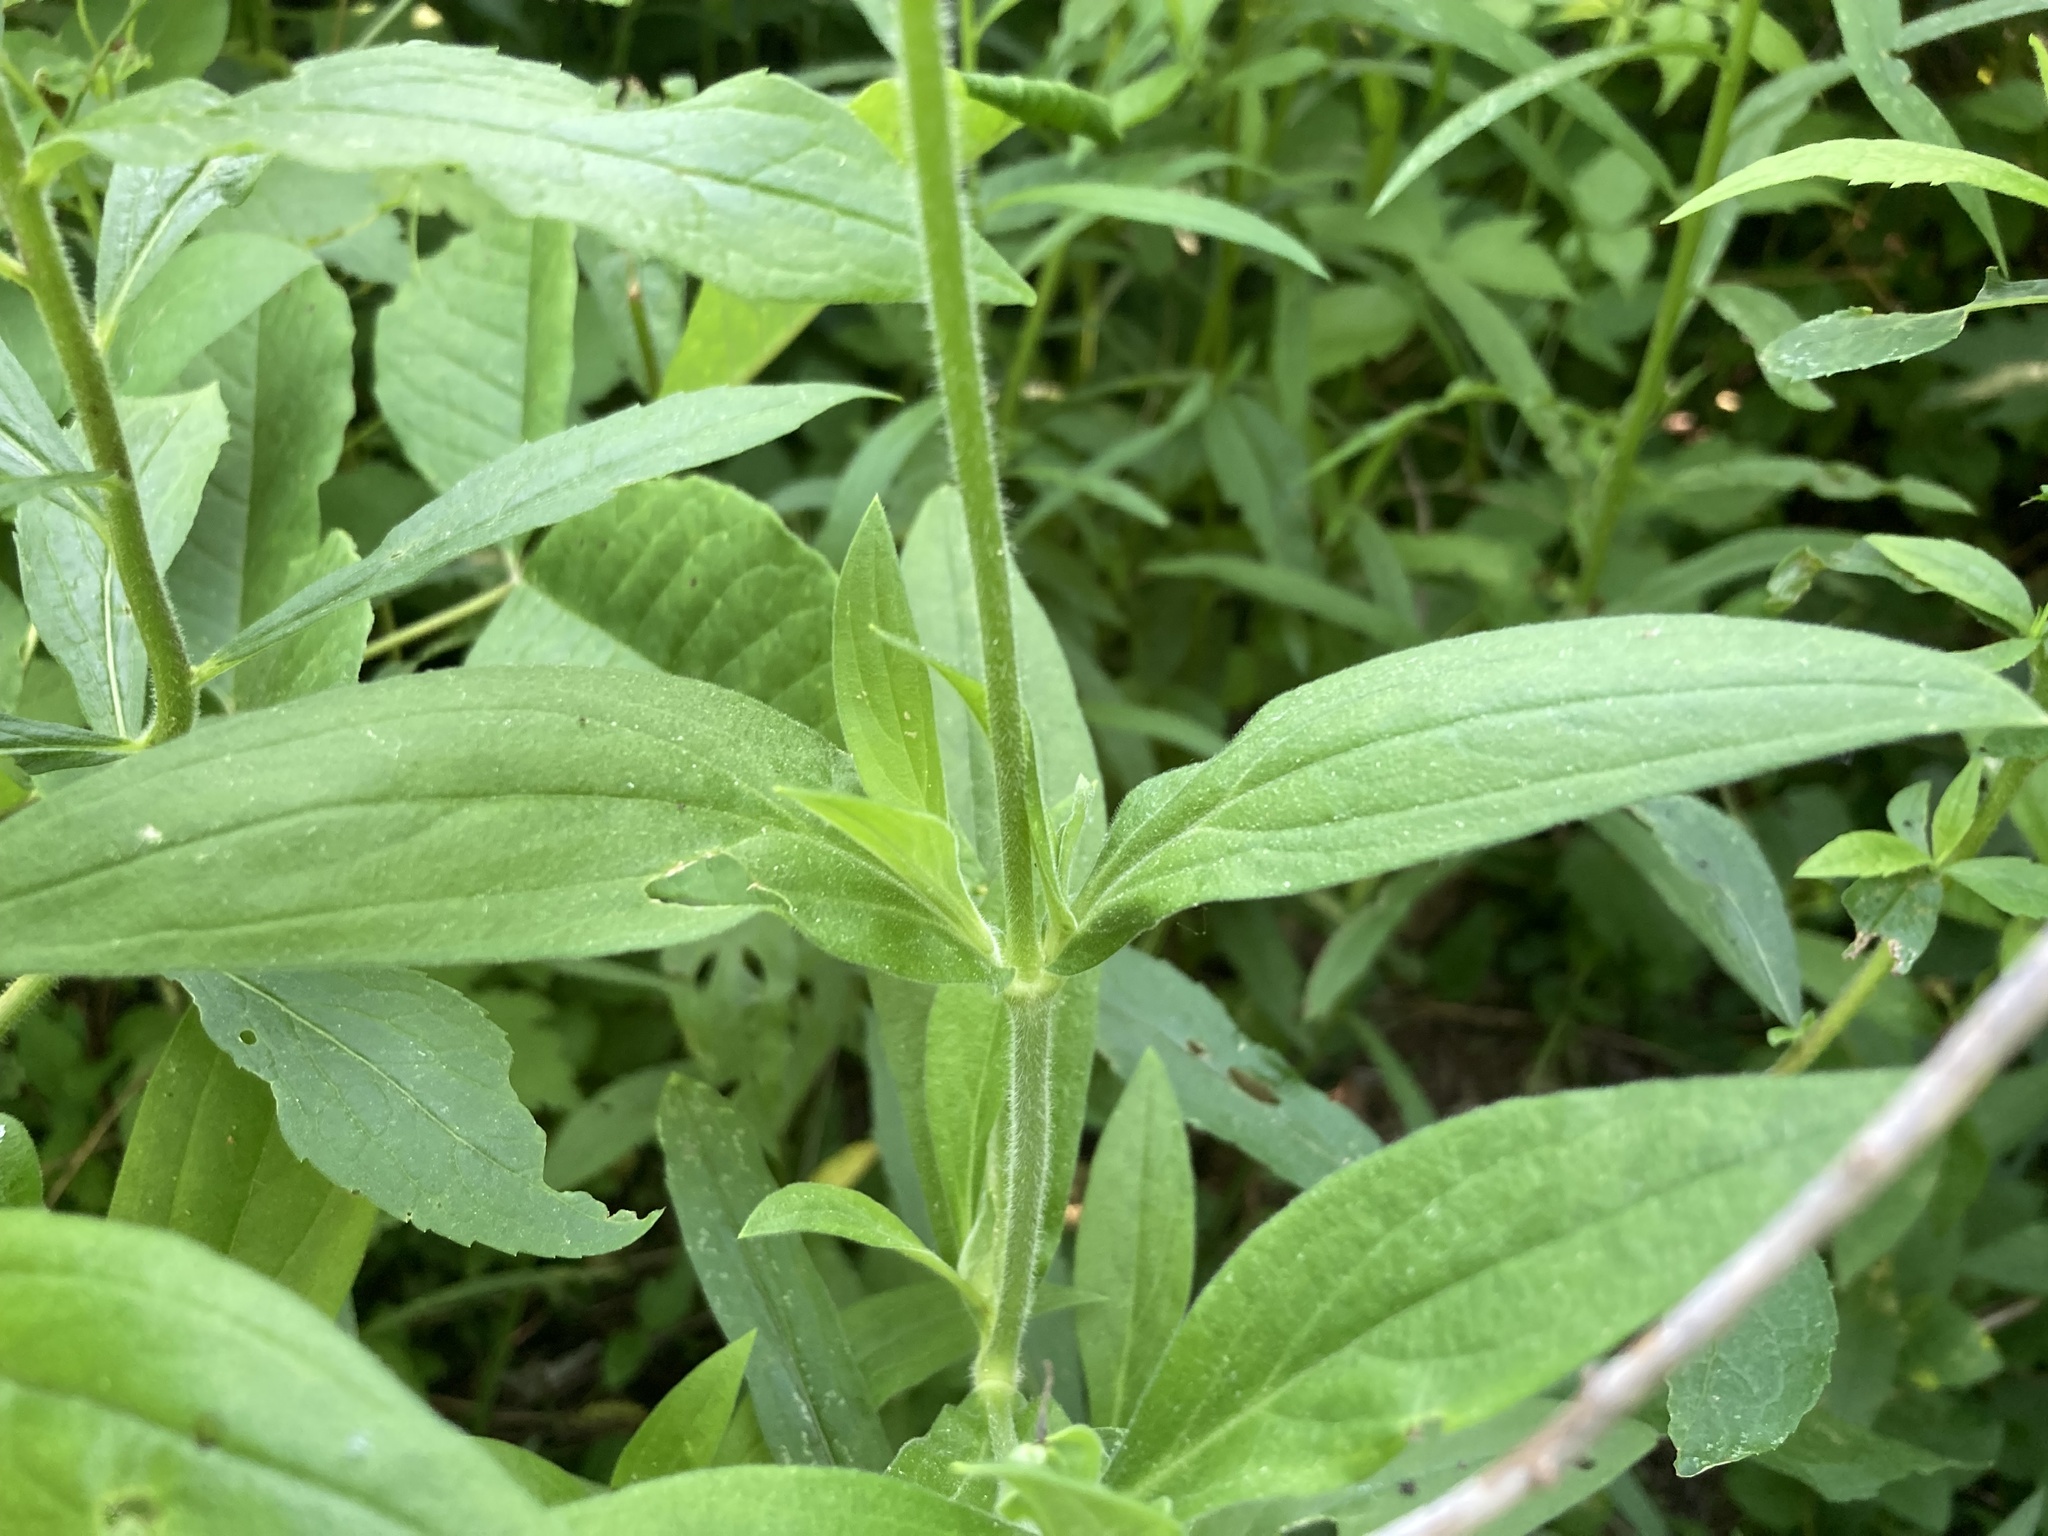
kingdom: Plantae
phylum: Tracheophyta
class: Magnoliopsida
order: Caryophyllales
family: Caryophyllaceae
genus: Silene
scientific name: Silene latifolia
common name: White campion
